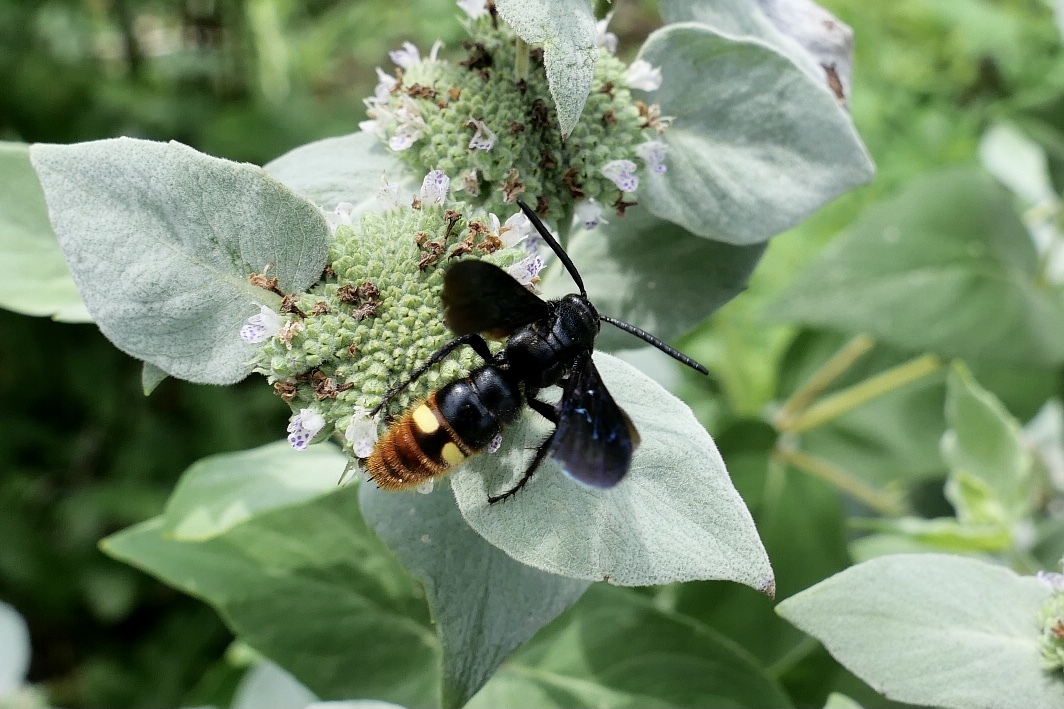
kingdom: Animalia
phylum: Arthropoda
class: Insecta
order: Hymenoptera
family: Scoliidae
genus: Scolia
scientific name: Scolia dubia
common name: Blue-winged scoliid wasp
